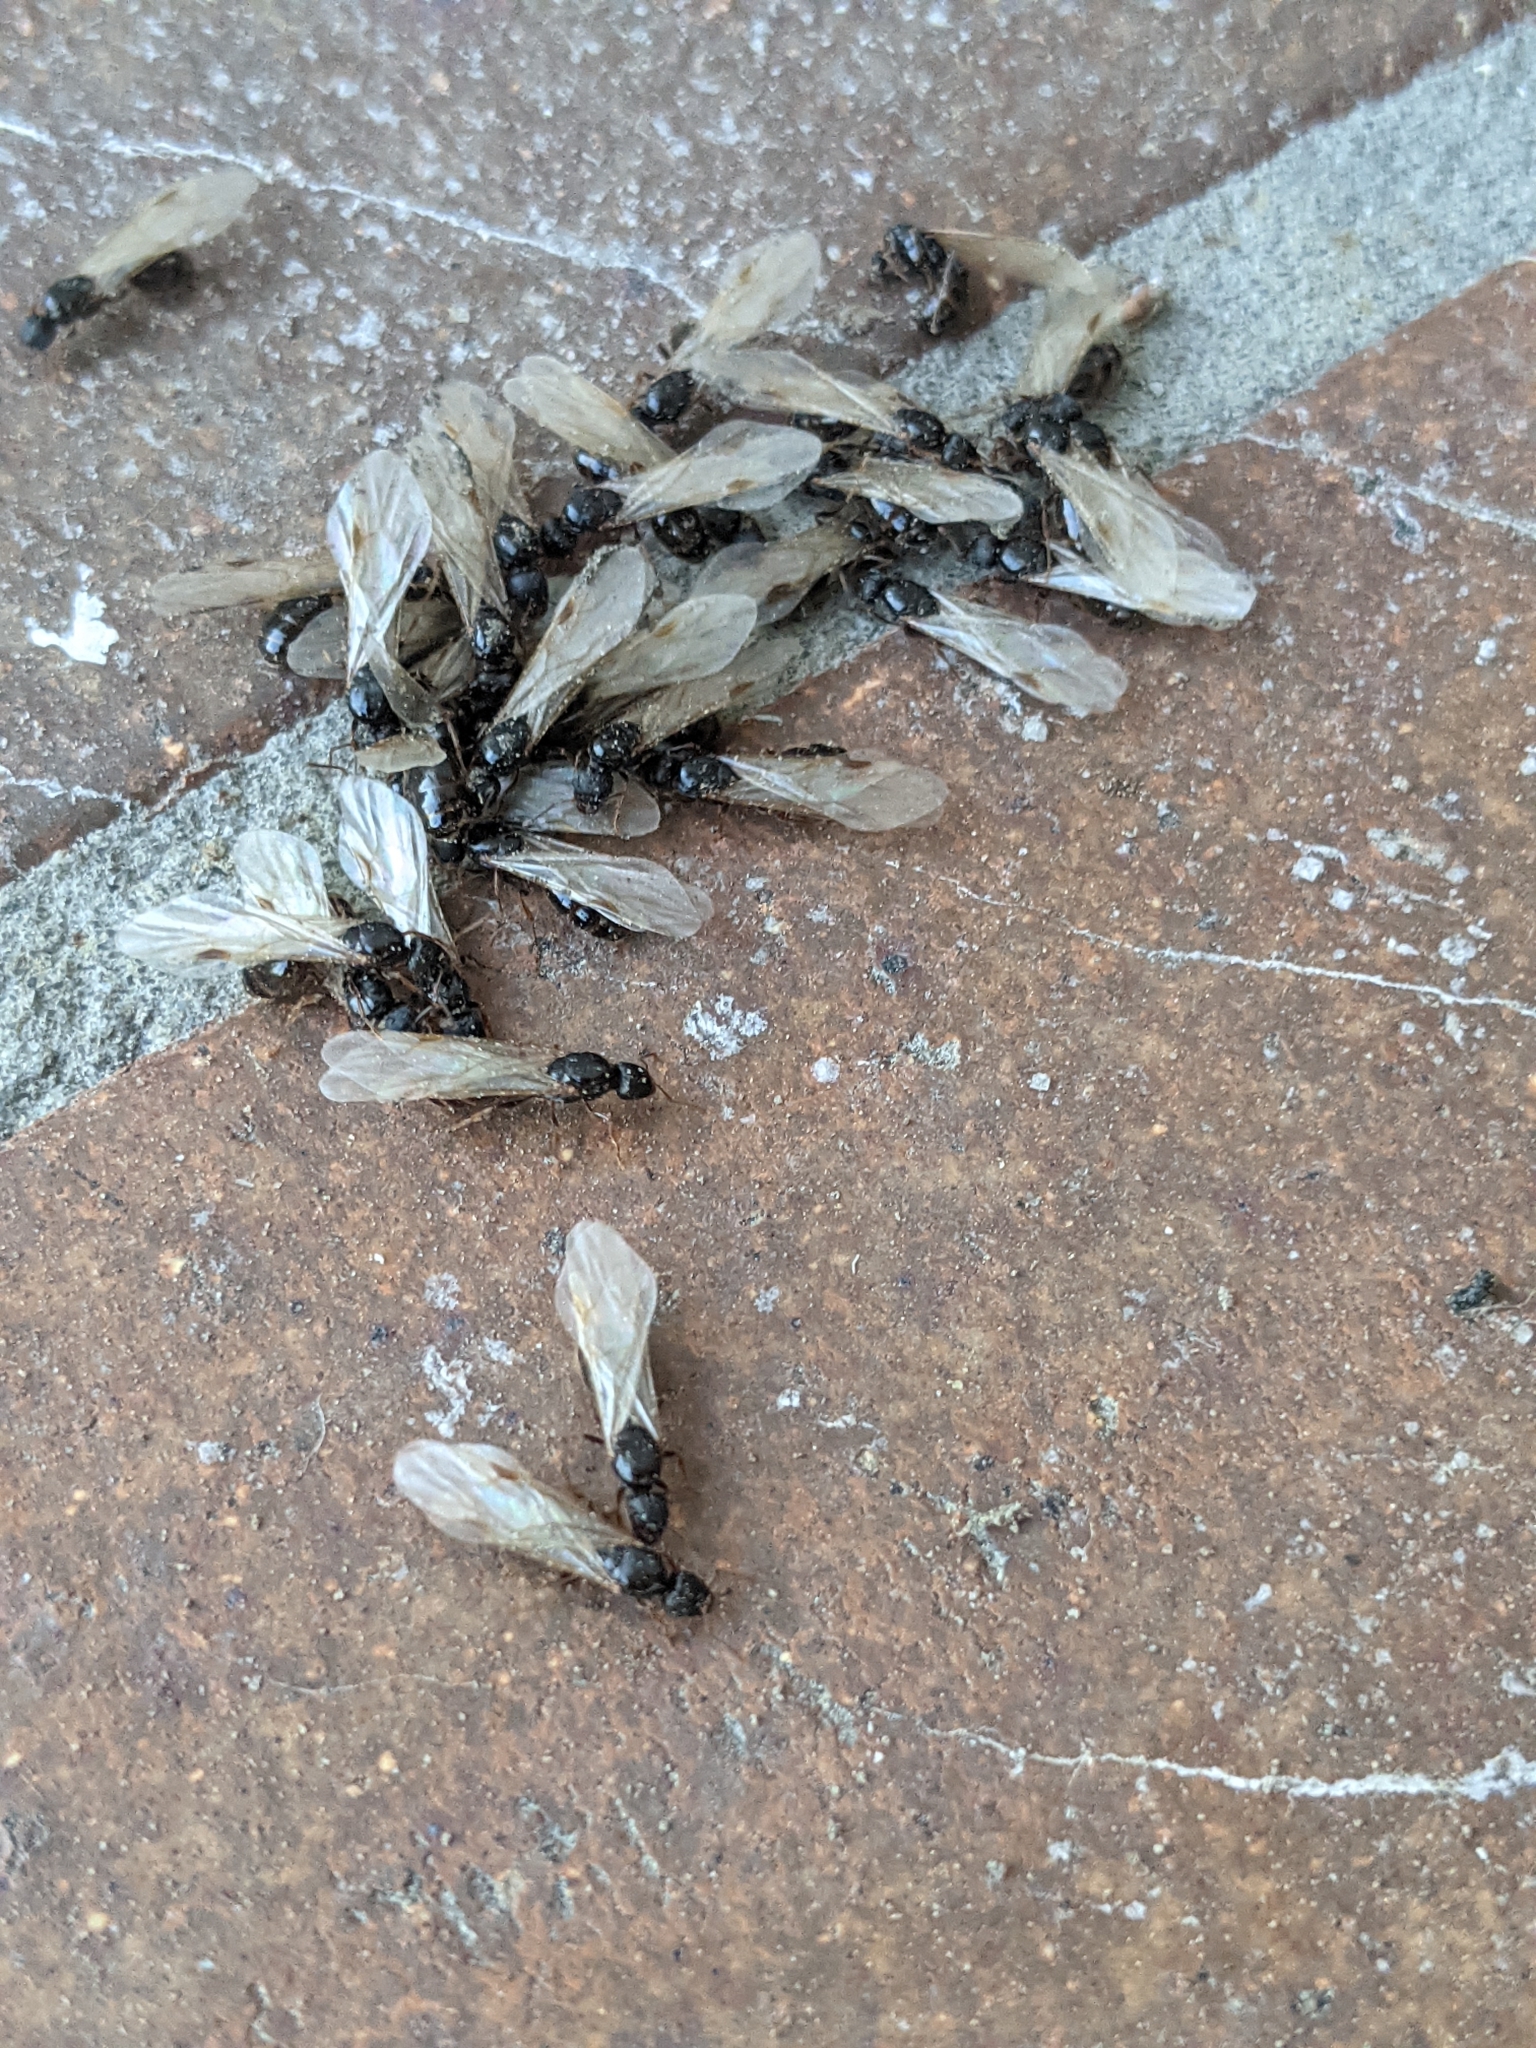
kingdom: Animalia
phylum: Arthropoda
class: Insecta
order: Hymenoptera
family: Formicidae
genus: Tetramorium
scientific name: Tetramorium immigrans
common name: Pavement ant
